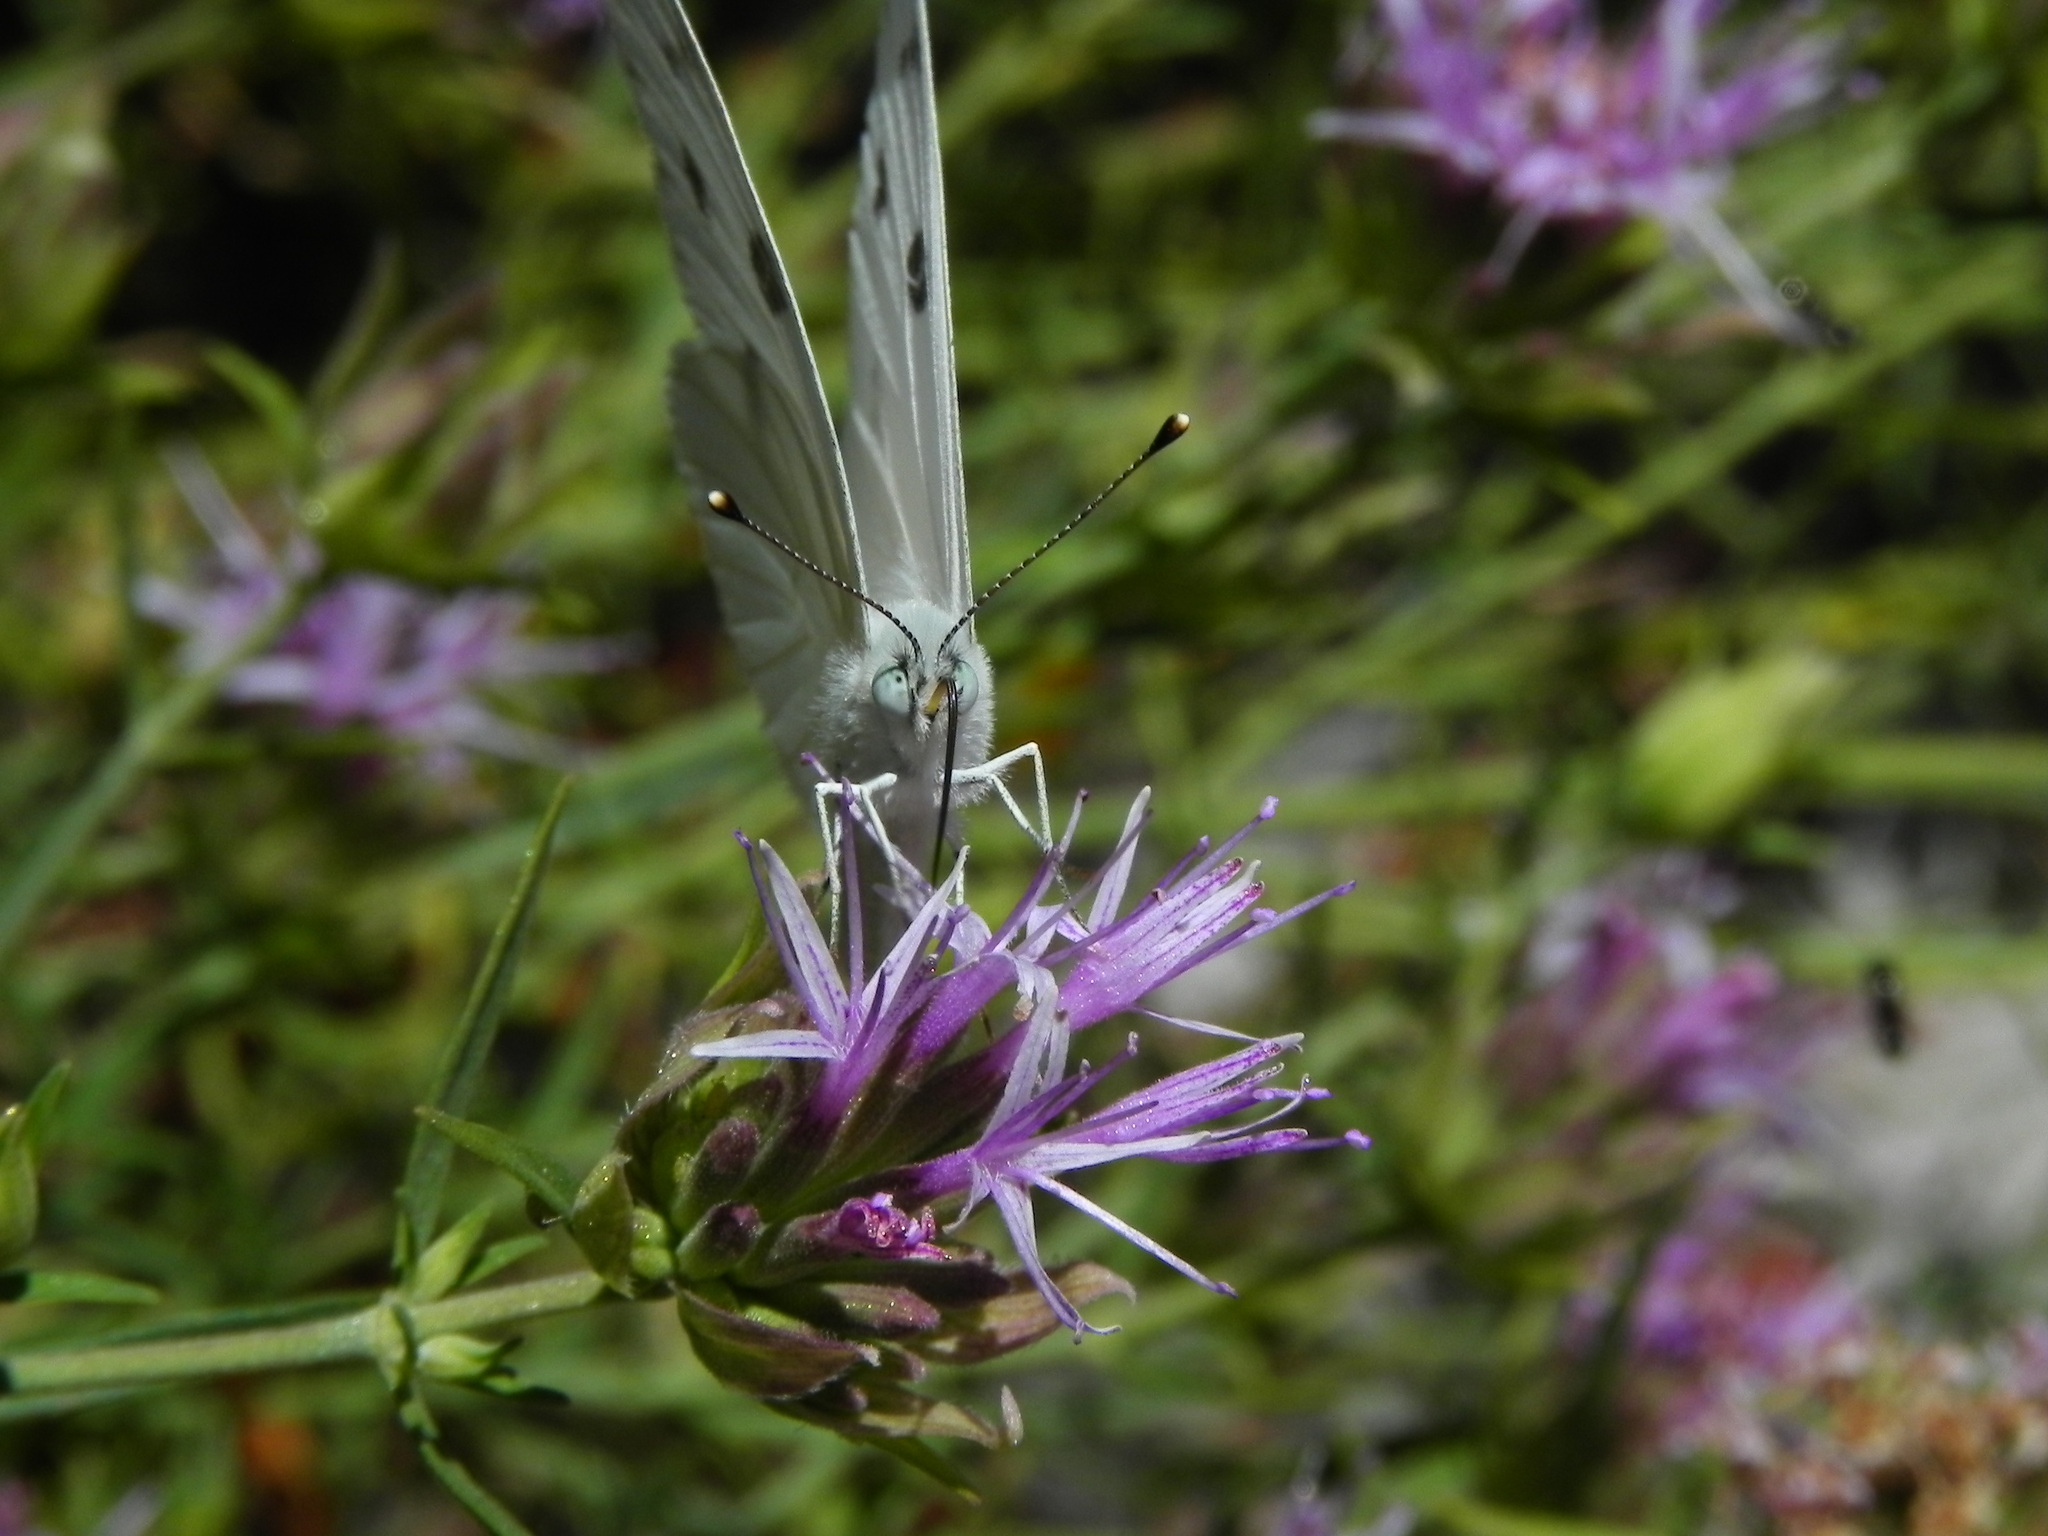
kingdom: Animalia
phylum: Arthropoda
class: Insecta
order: Lepidoptera
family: Pieridae
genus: Pontia
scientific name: Pontia protodice
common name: Checkered white
